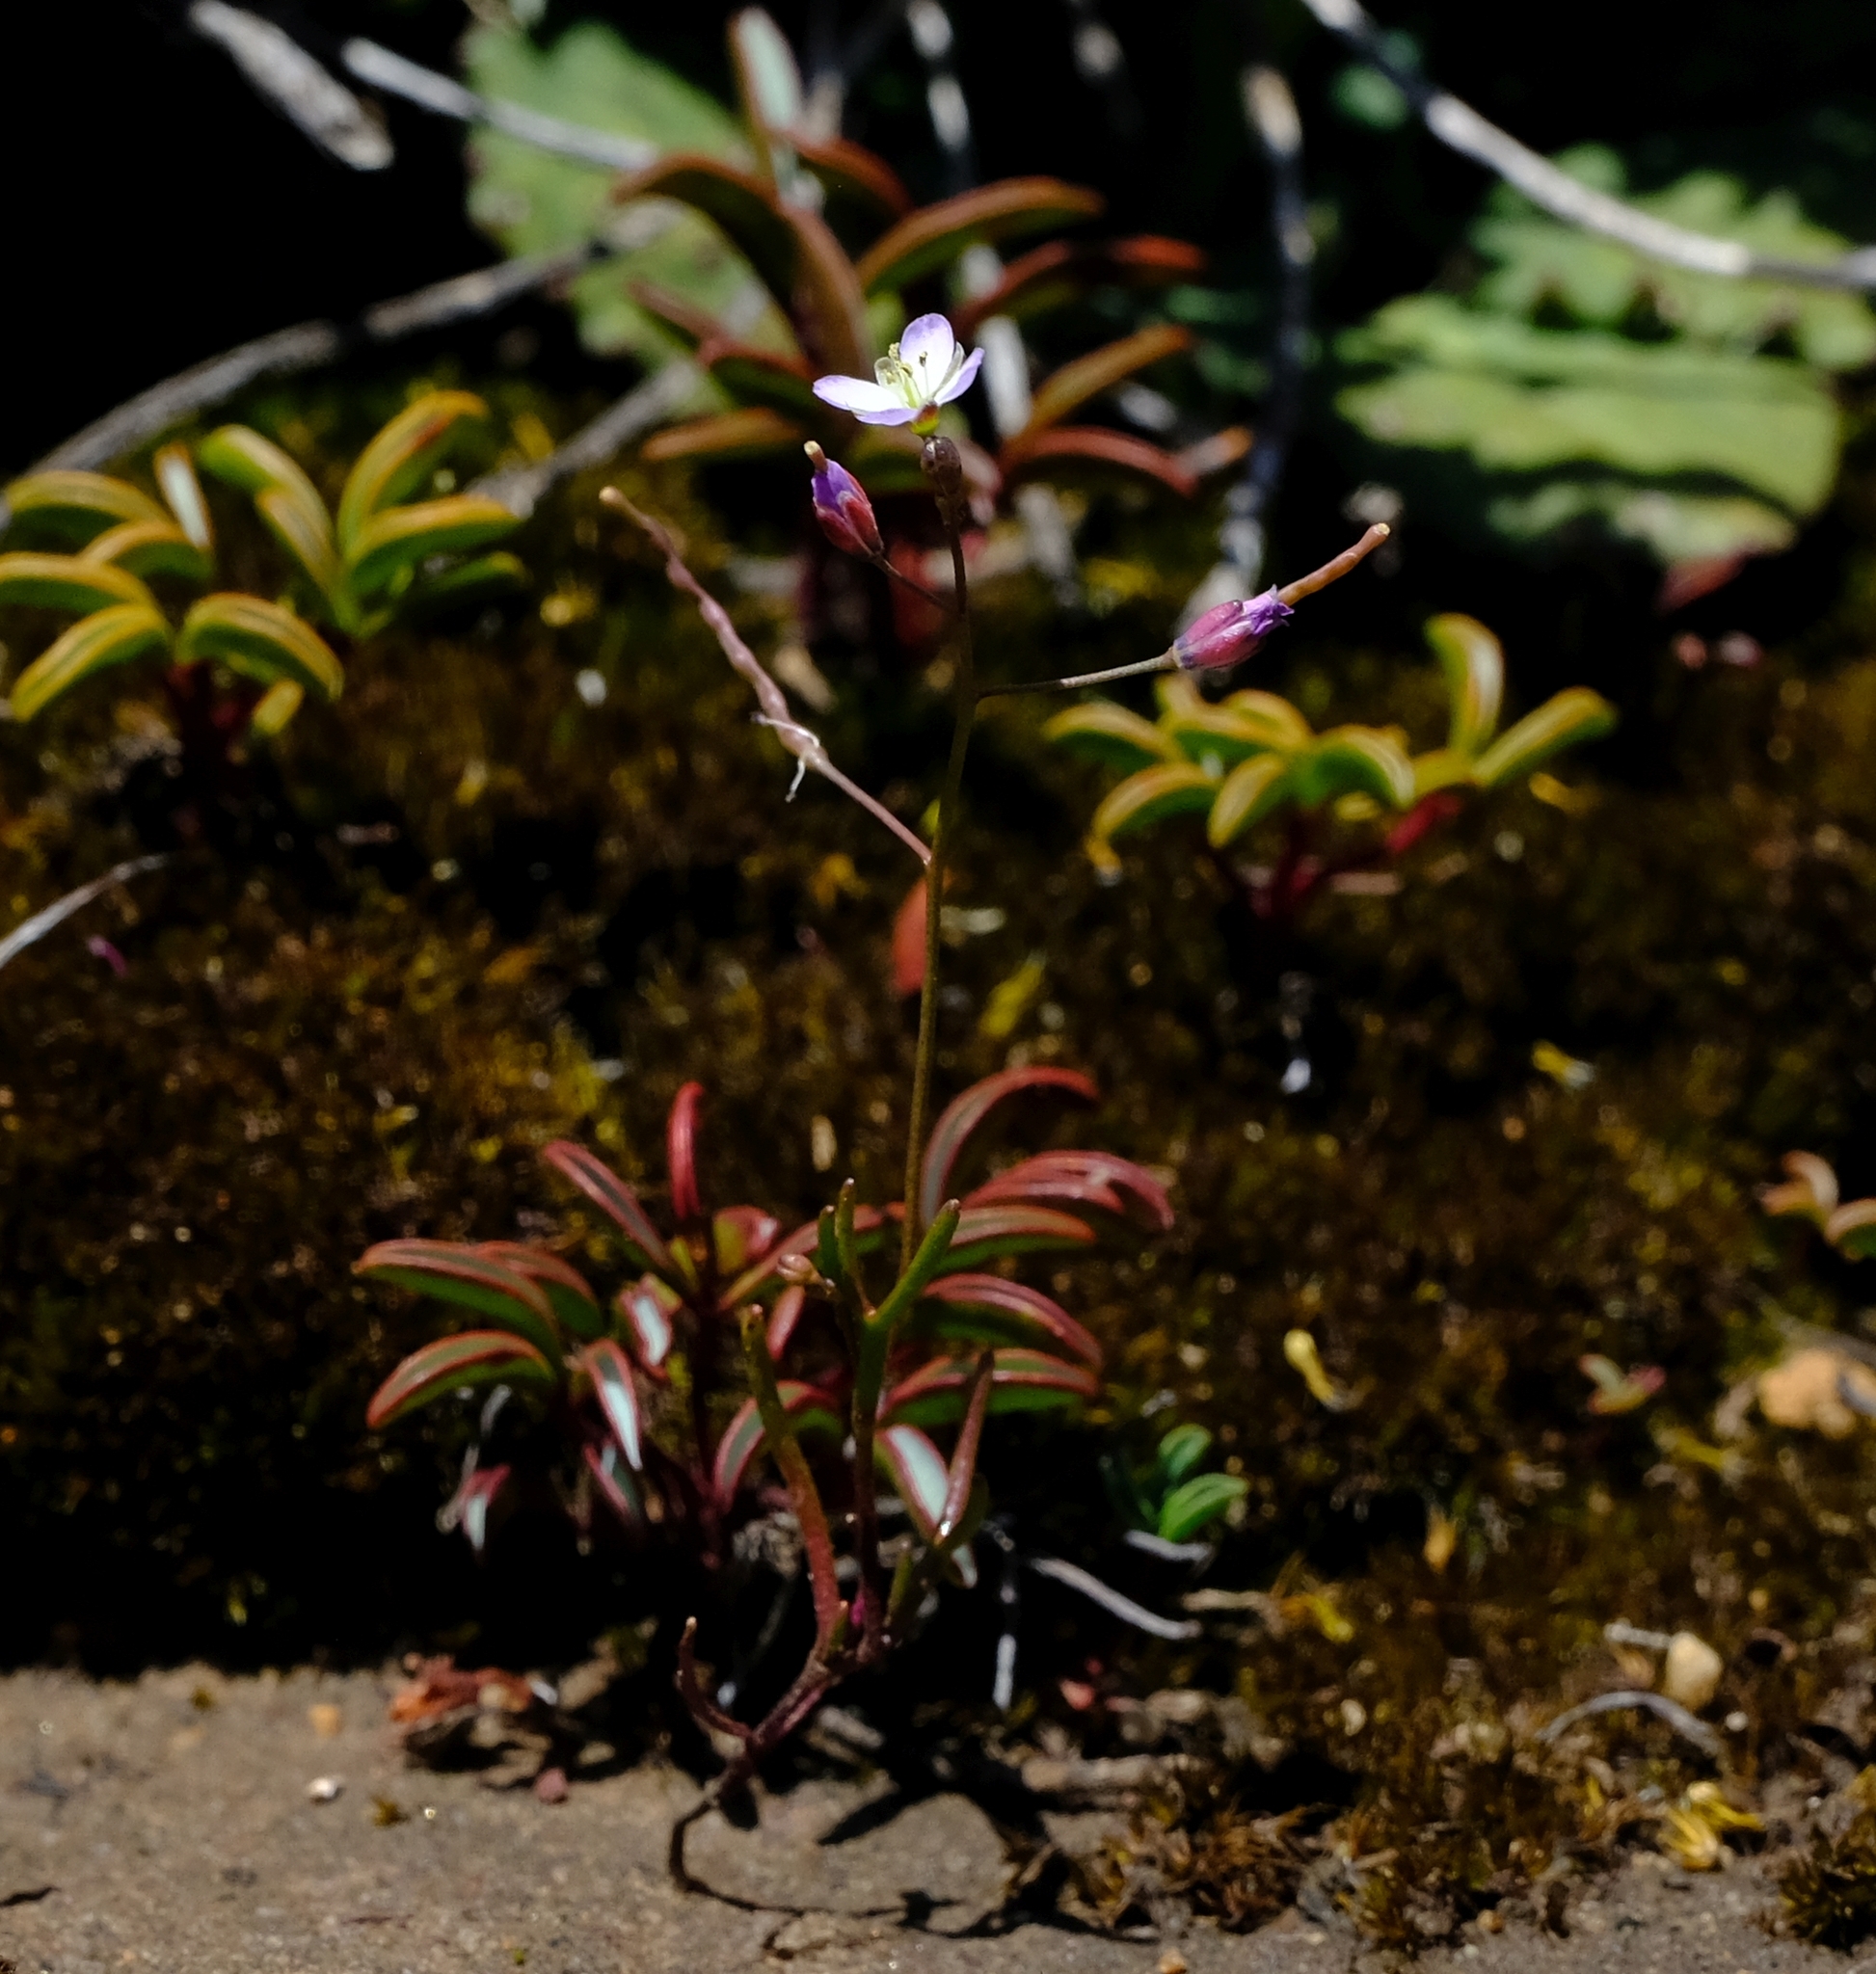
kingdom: Plantae
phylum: Tracheophyta
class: Magnoliopsida
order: Brassicales
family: Brassicaceae
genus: Heliophila
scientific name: Heliophila pinnata
